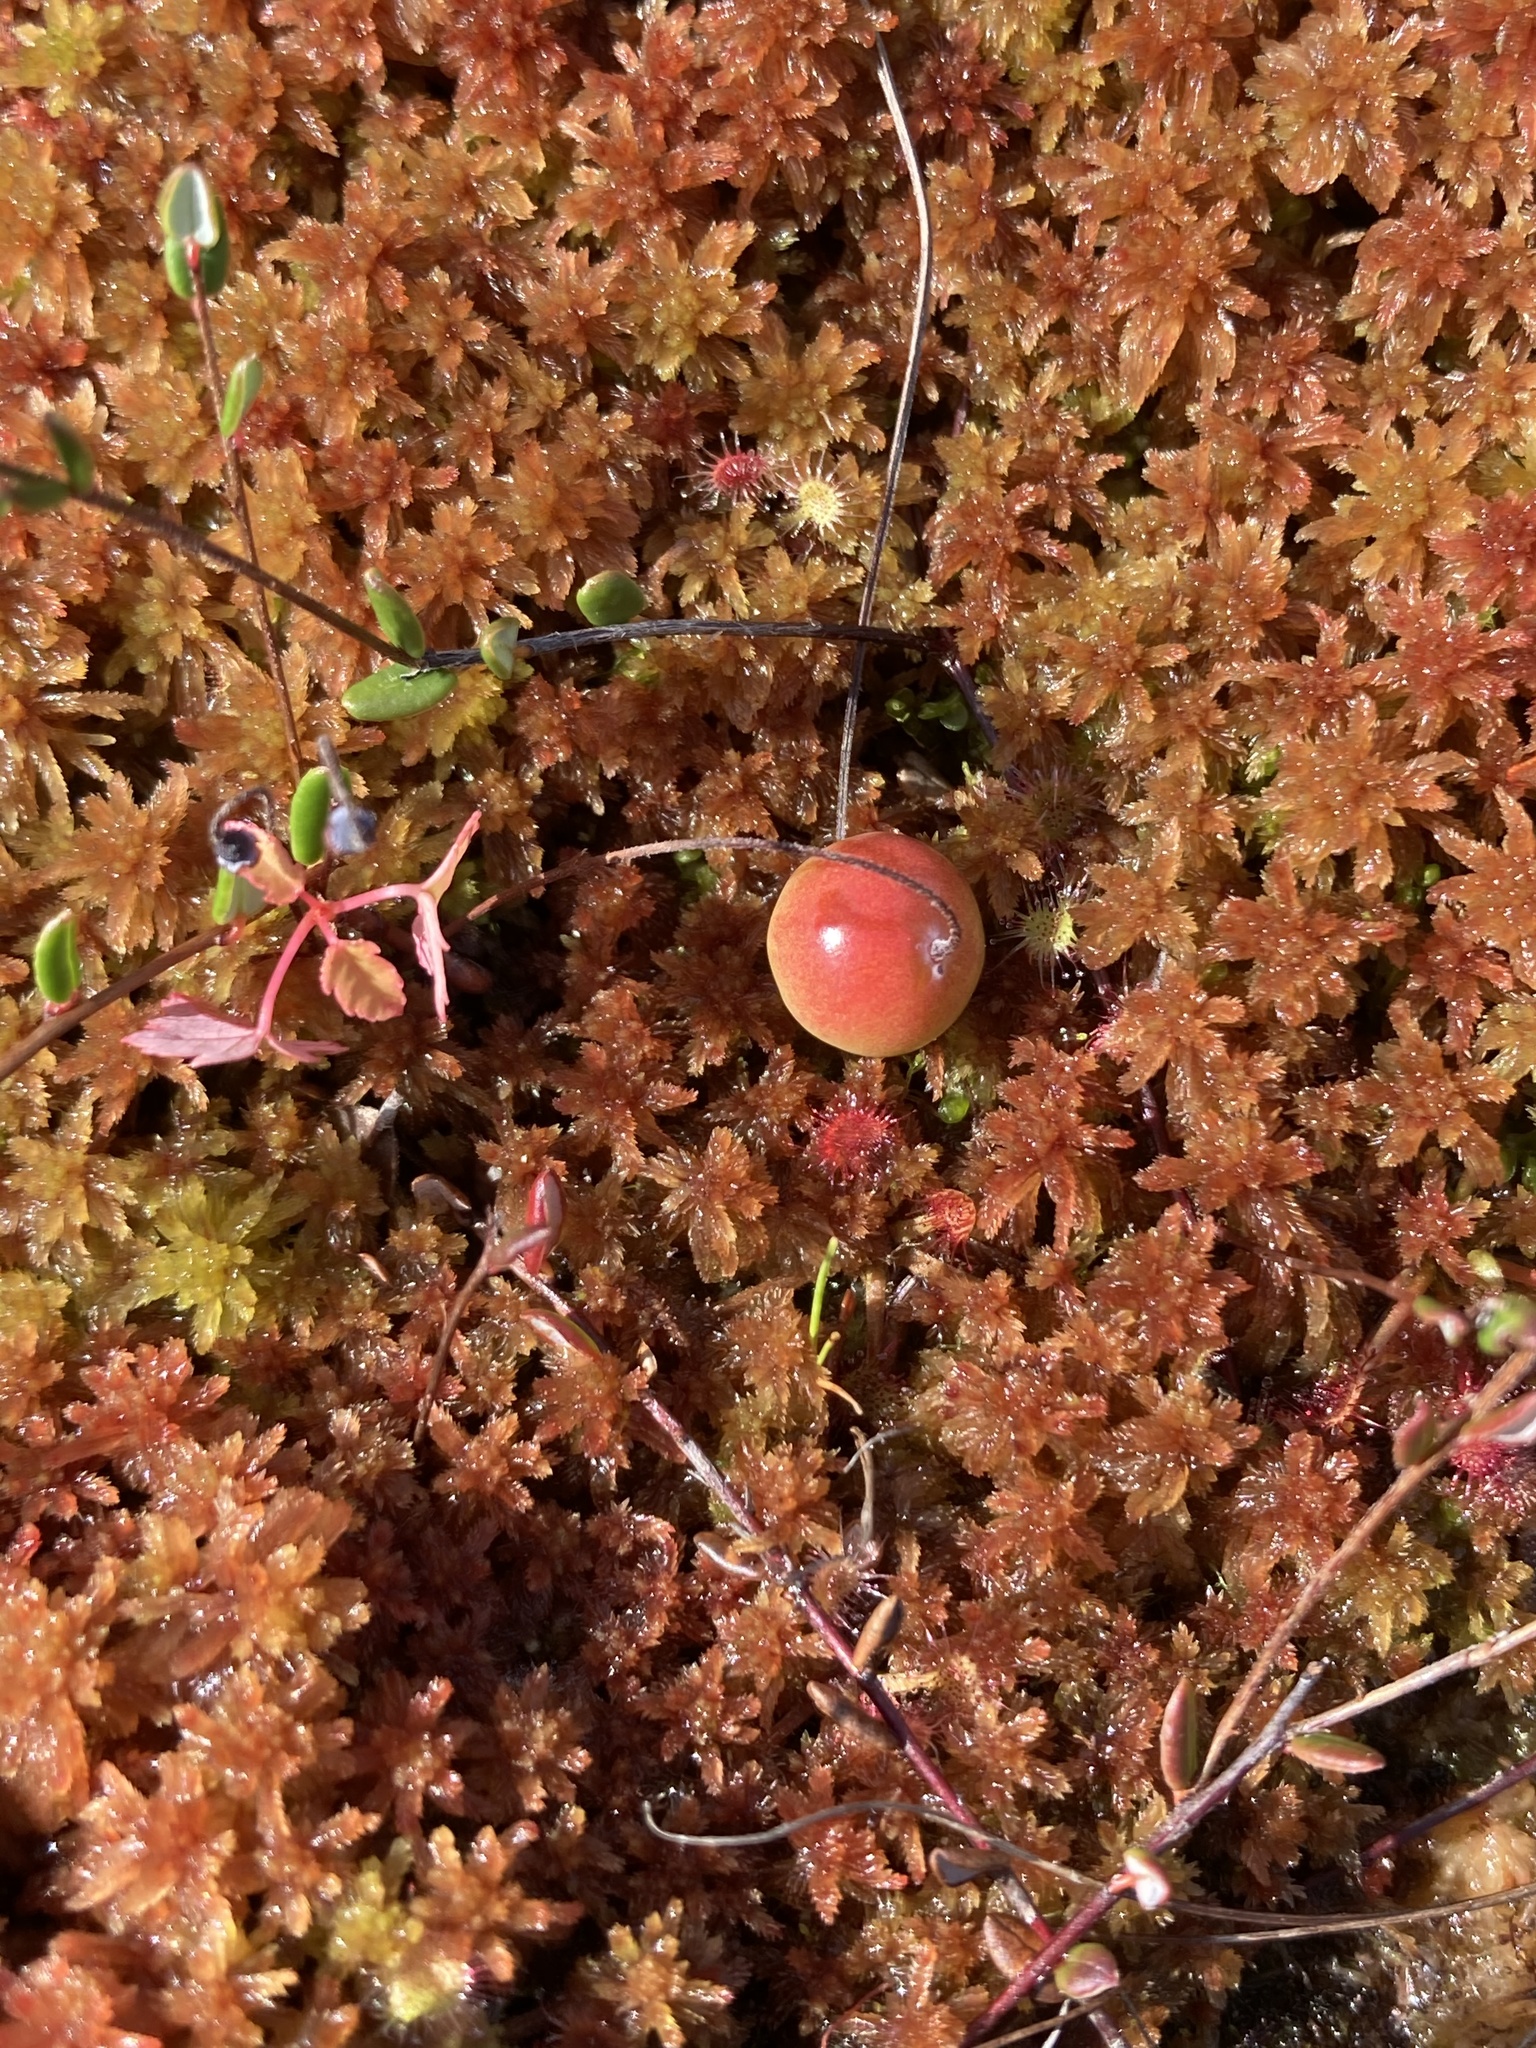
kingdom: Plantae
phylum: Tracheophyta
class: Magnoliopsida
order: Ericales
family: Ericaceae
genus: Vaccinium
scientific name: Vaccinium oxycoccos
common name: Cranberry
